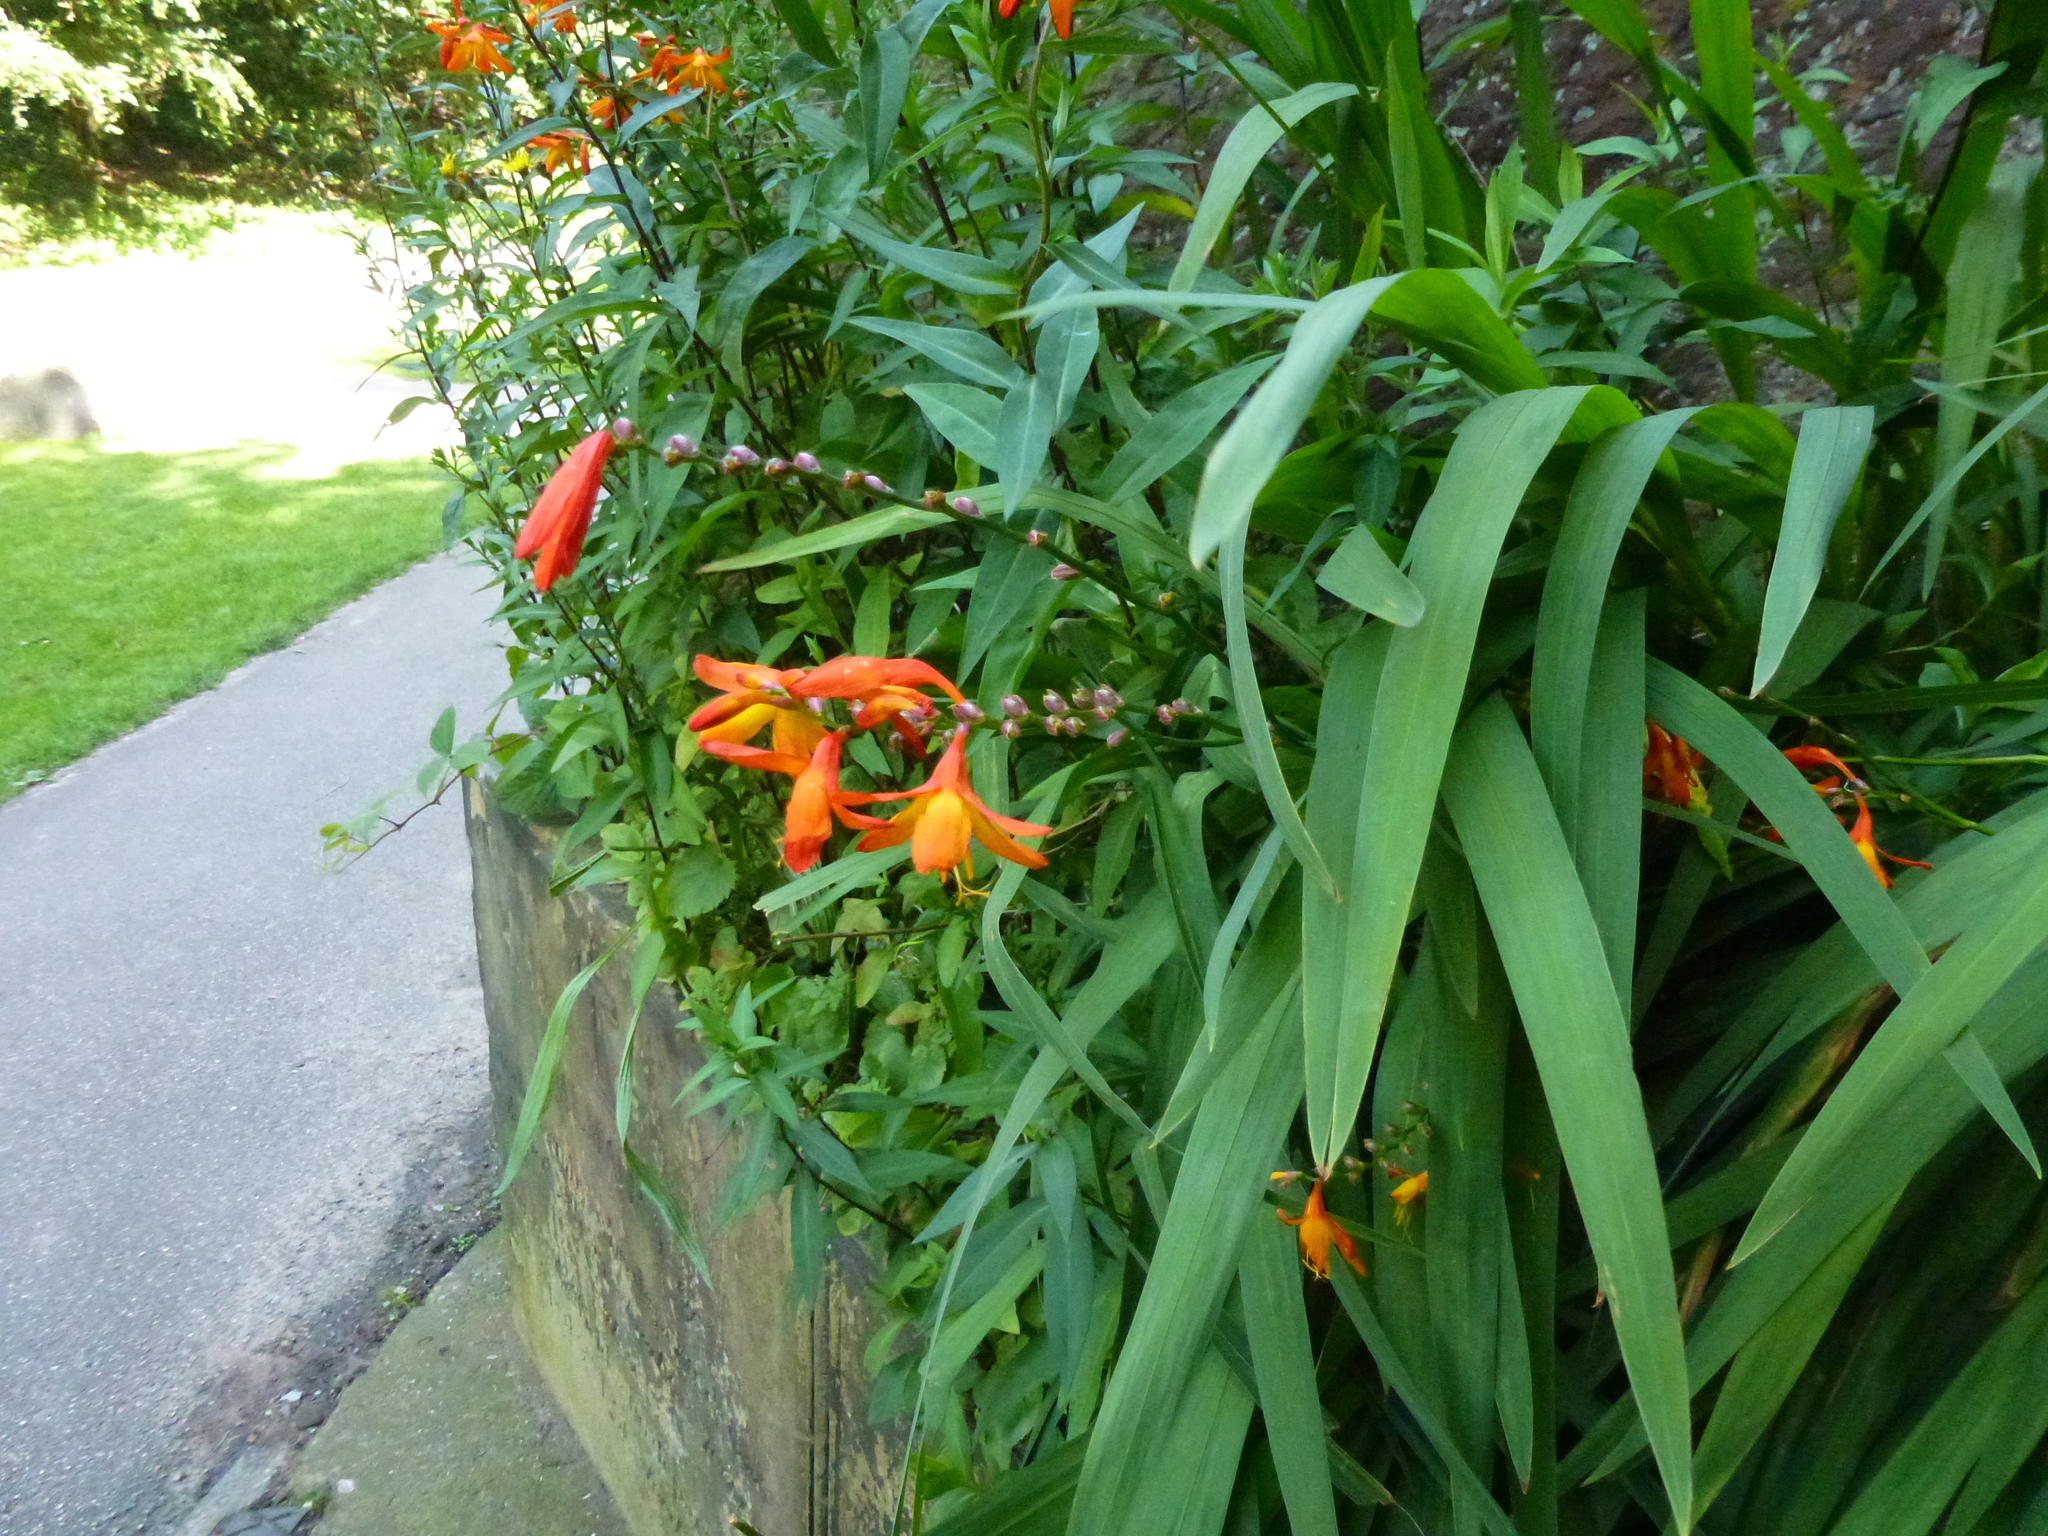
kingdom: Plantae
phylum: Tracheophyta
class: Liliopsida
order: Asparagales
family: Iridaceae
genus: Crocosmia
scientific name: Crocosmia crocosmiiflora
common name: Montbretia
